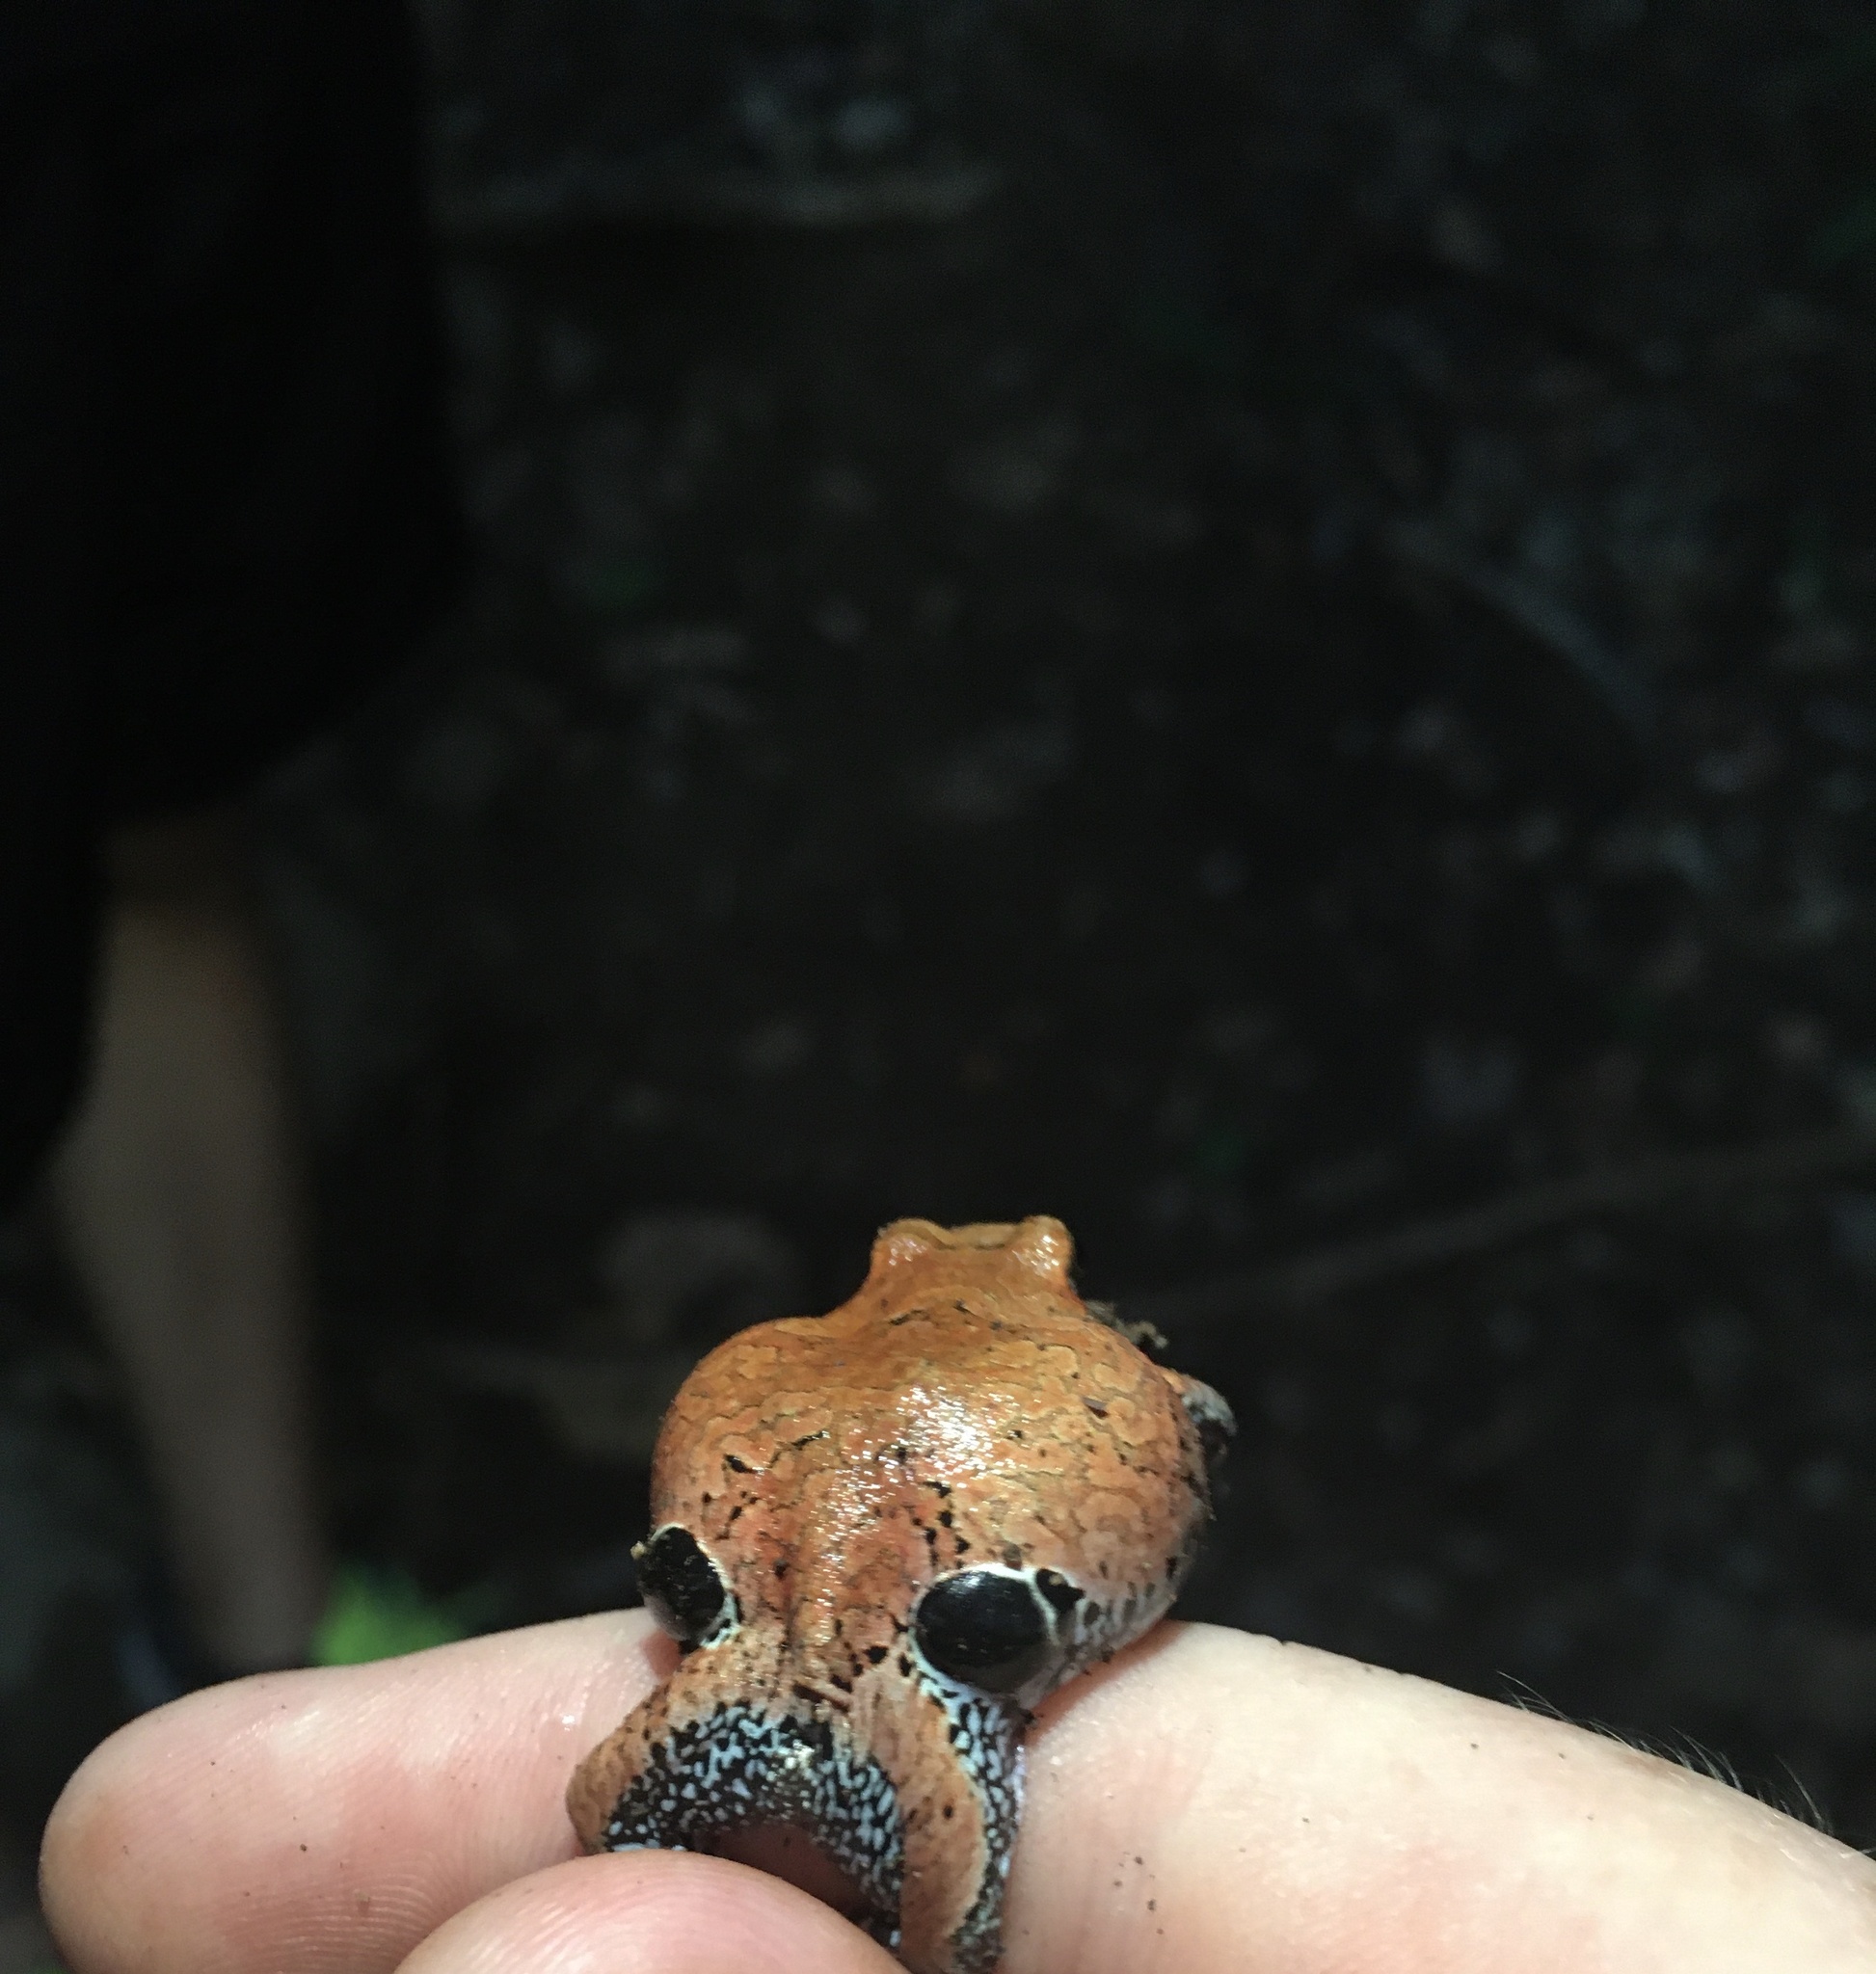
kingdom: Animalia
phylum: Chordata
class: Amphibia
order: Anura
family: Leptodactylidae
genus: Physalaemus
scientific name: Physalaemus nattereri
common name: Cuyaba dwarf frog
